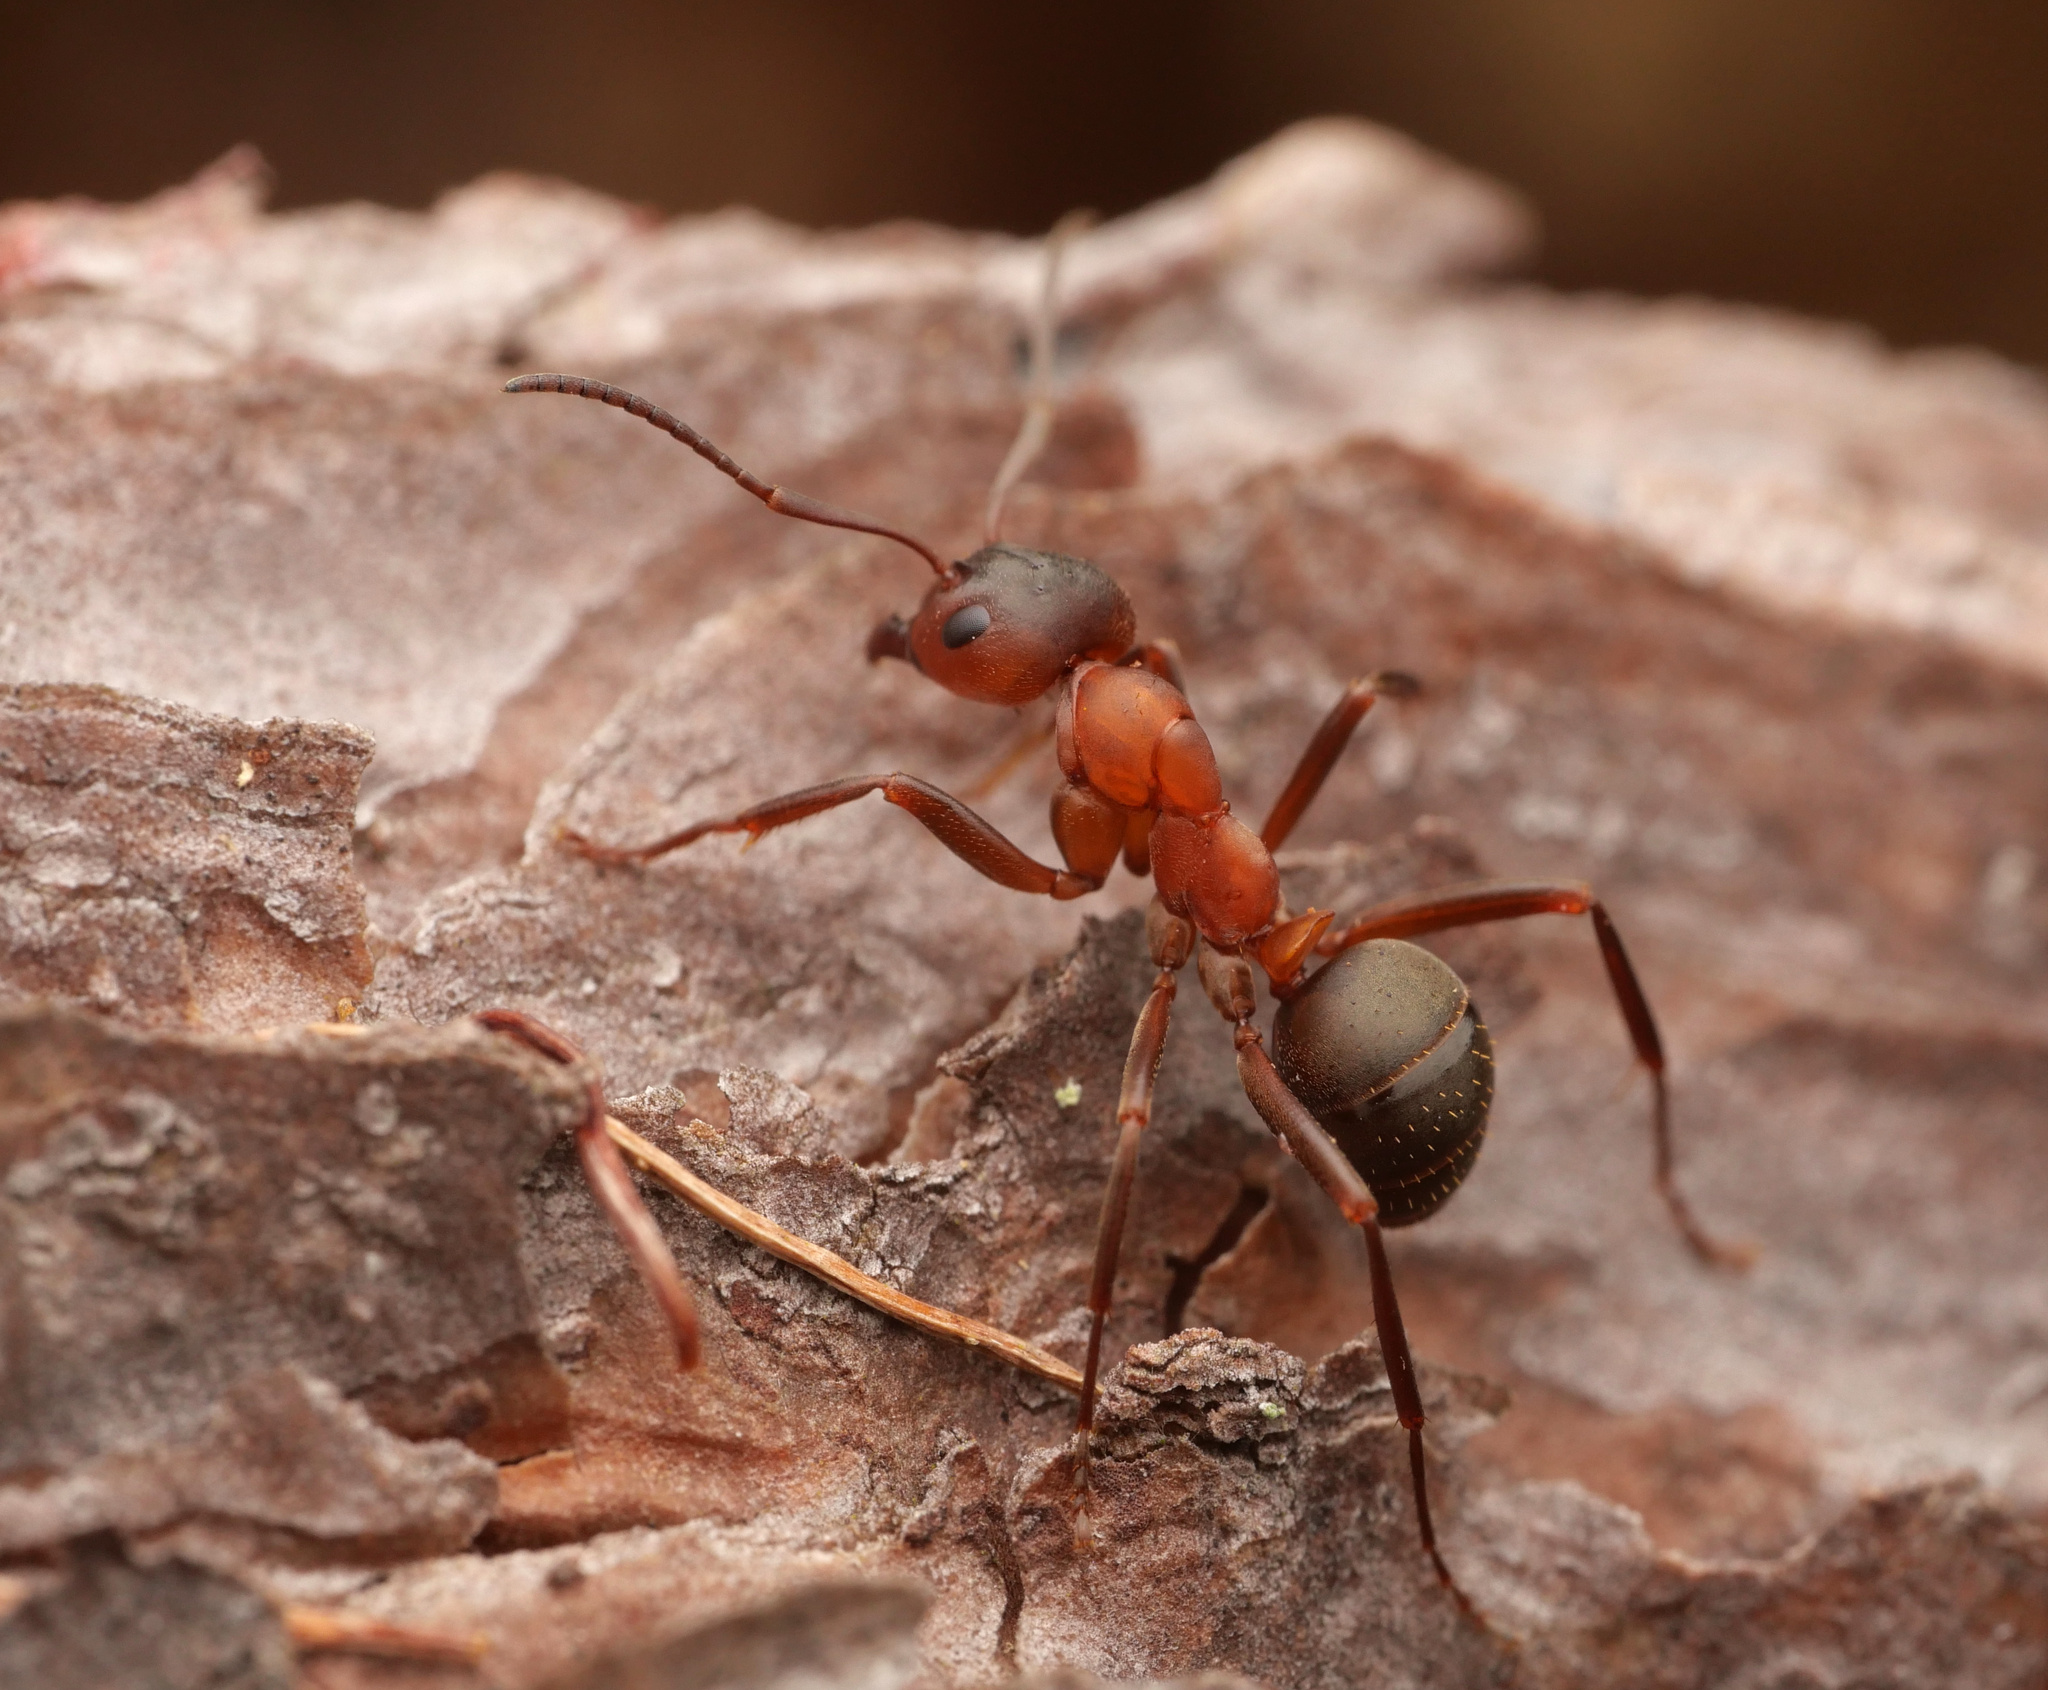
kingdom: Animalia
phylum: Arthropoda
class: Insecta
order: Hymenoptera
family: Formicidae
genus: Formica
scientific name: Formica sanguinea
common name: Blood-red ant
